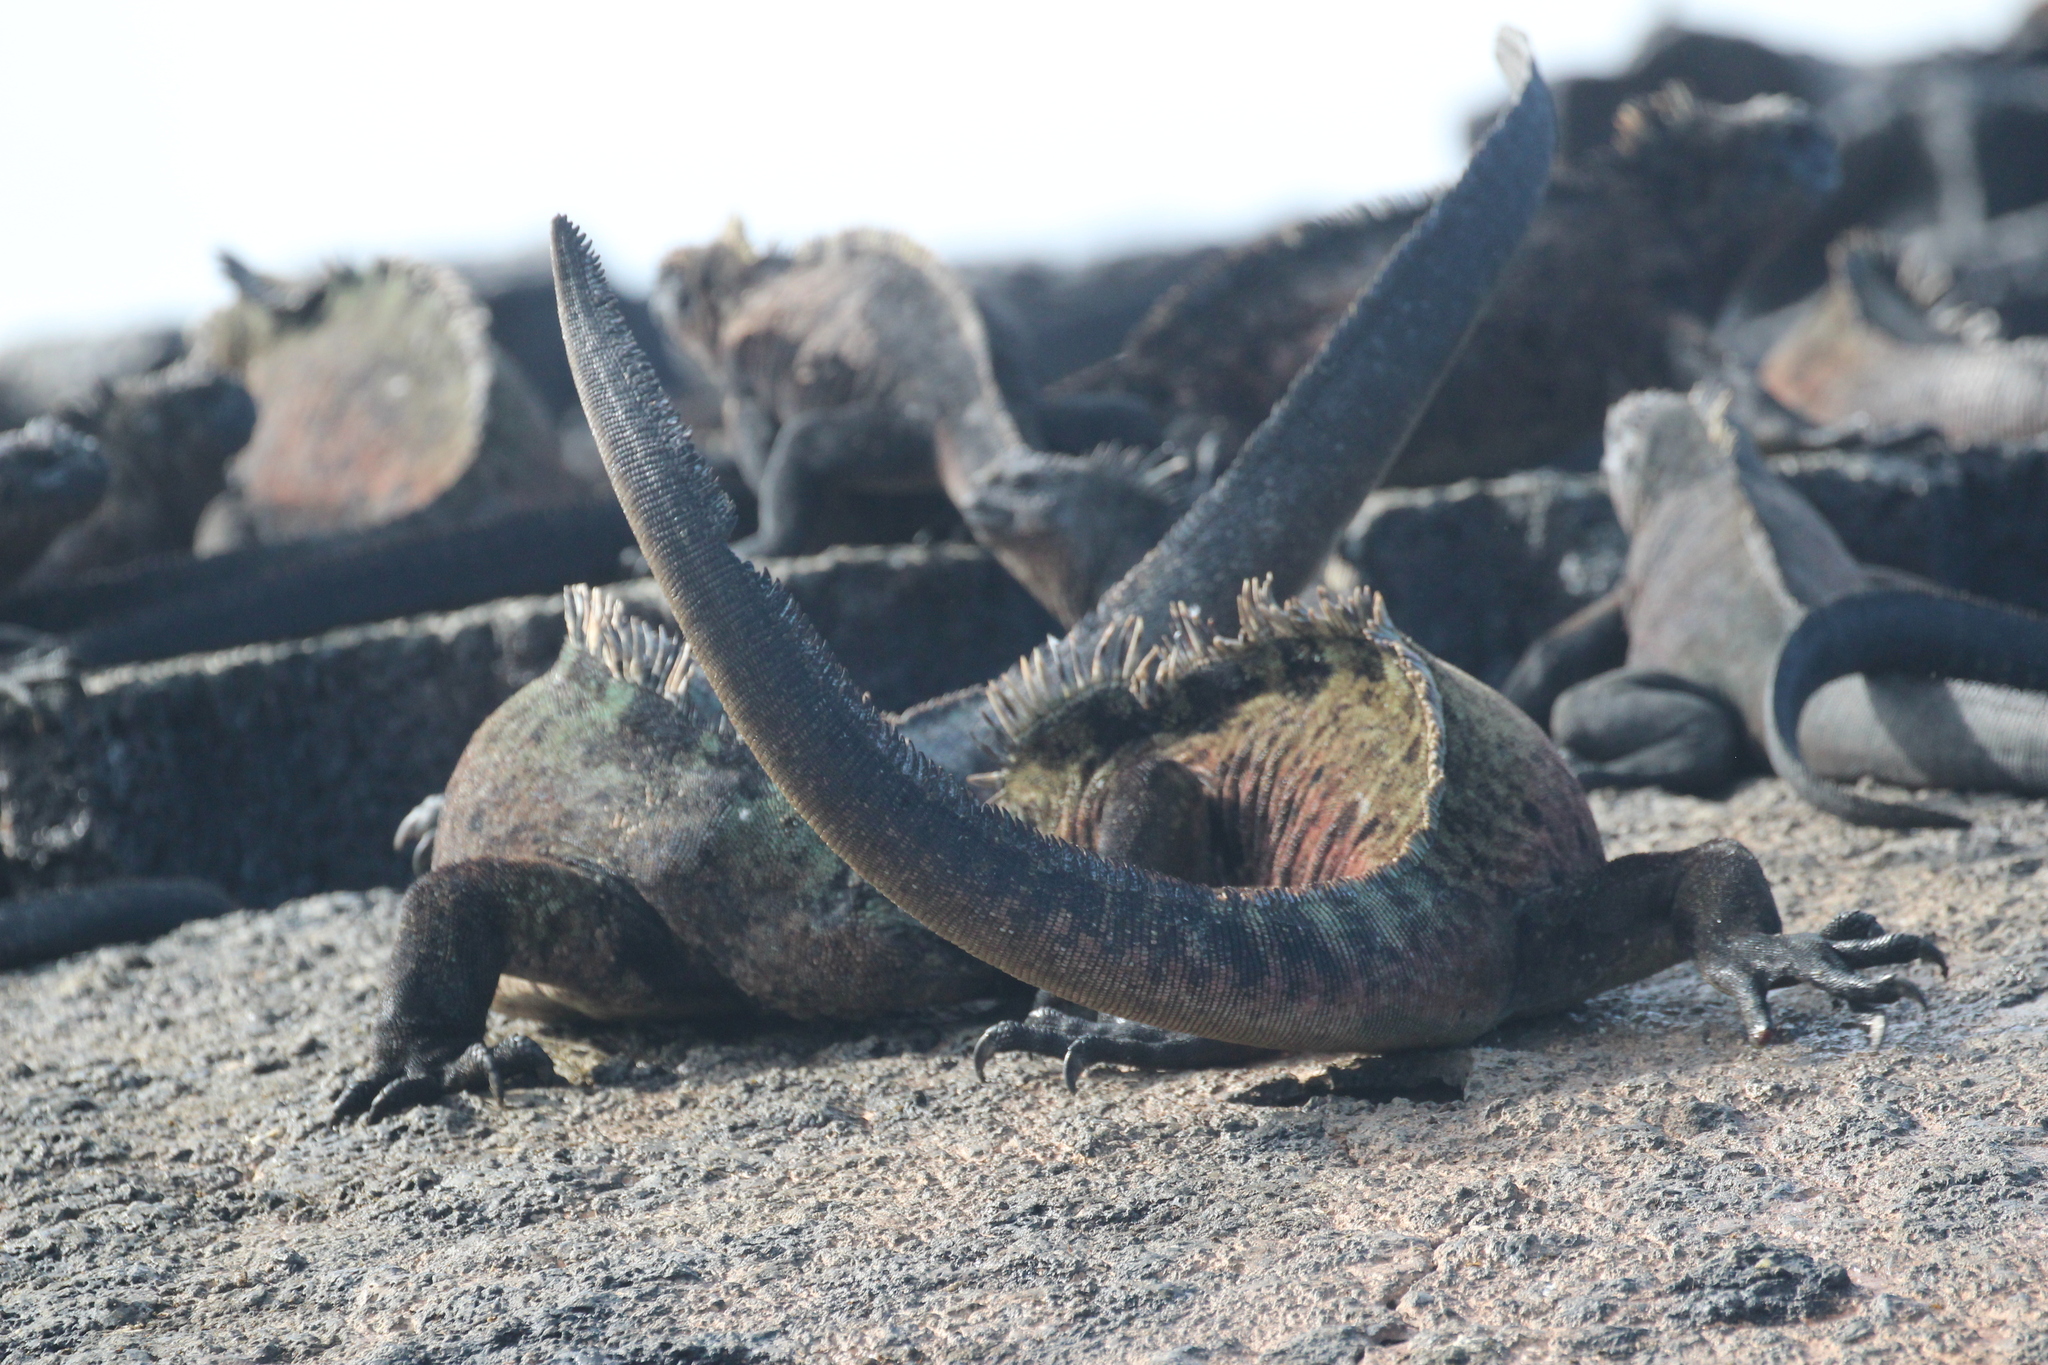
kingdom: Animalia
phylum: Chordata
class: Squamata
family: Iguanidae
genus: Amblyrhynchus
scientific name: Amblyrhynchus cristatus
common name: Marine iguana
